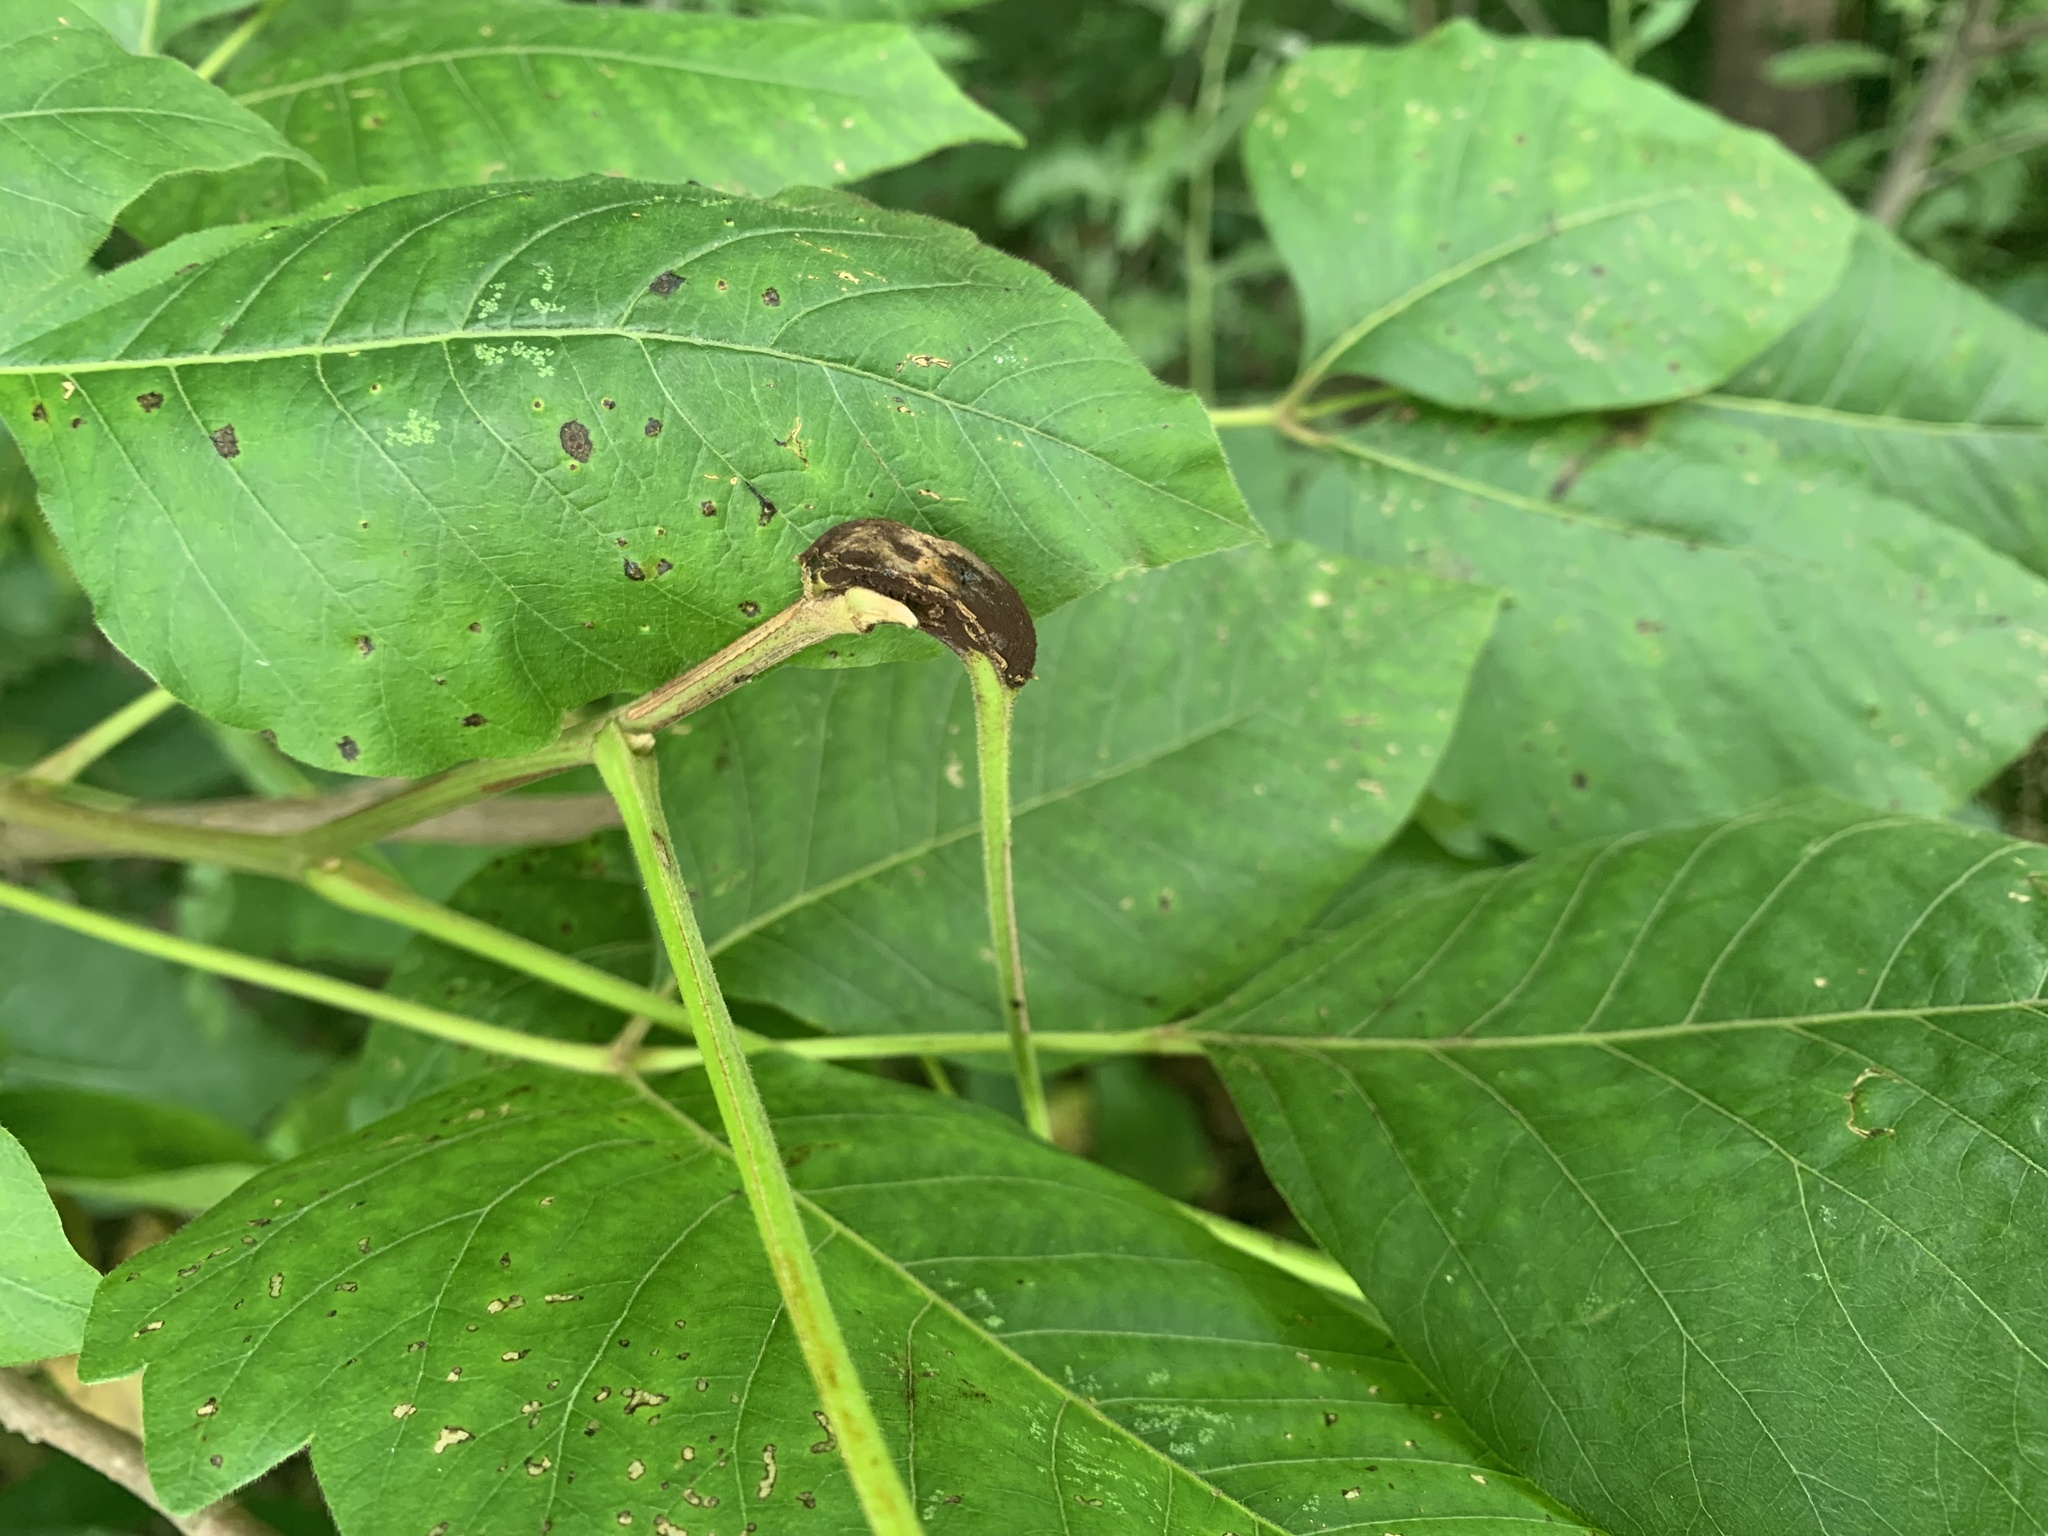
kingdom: Fungi
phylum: Basidiomycota
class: Pucciniomycetes
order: Pucciniales
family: Pileolariaceae
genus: Pileolaria
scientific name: Pileolaria brevipes
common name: Poison ivy rust
